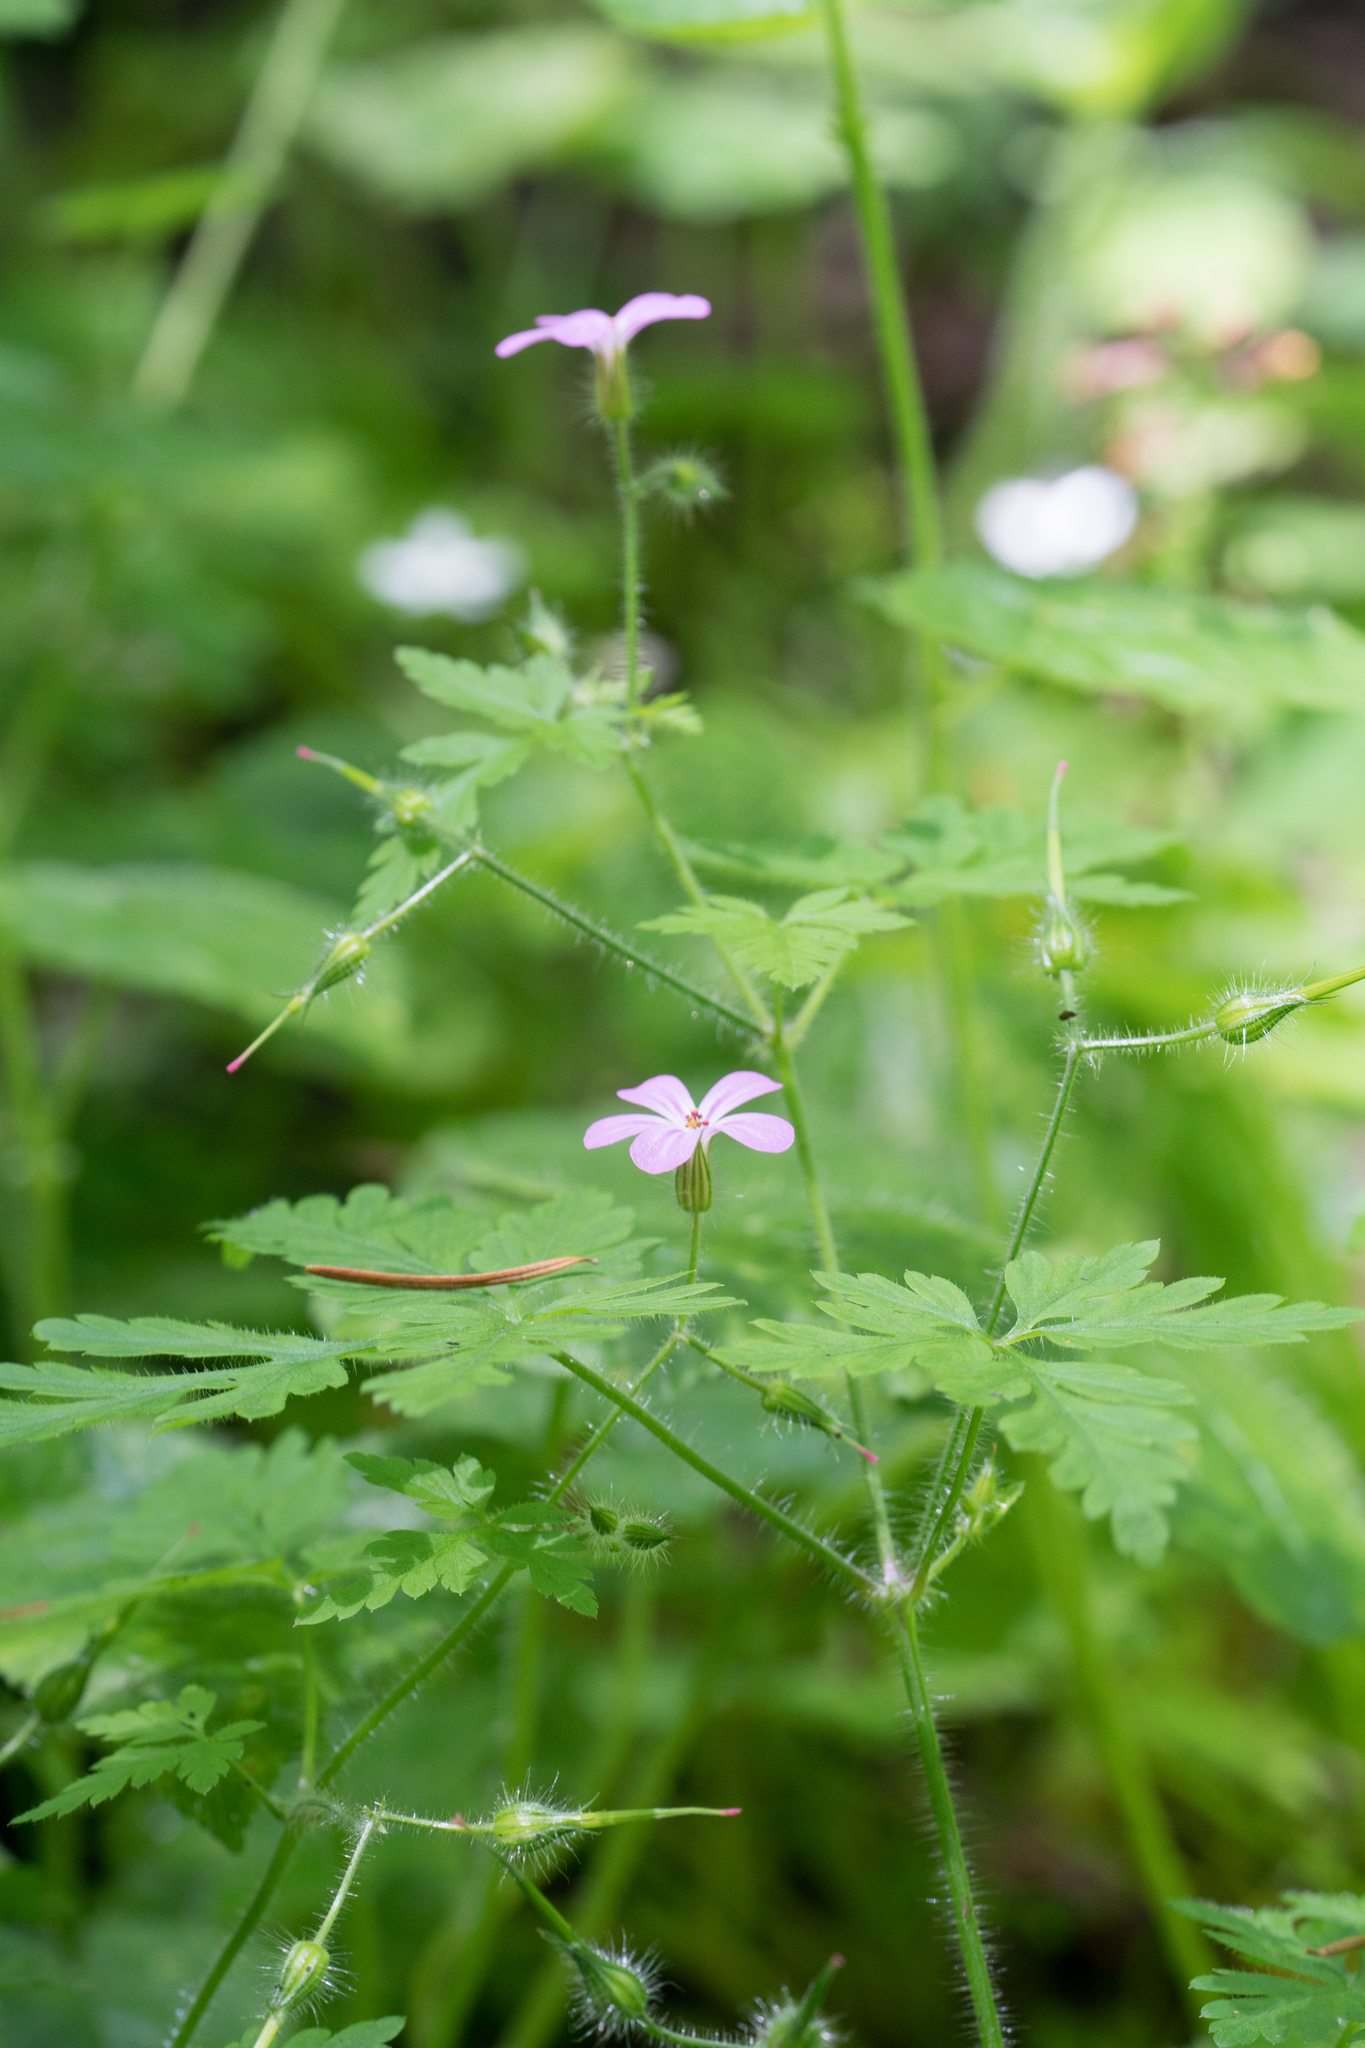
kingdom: Plantae
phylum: Tracheophyta
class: Magnoliopsida
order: Geraniales
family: Geraniaceae
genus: Geranium
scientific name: Geranium robertianum
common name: Herb-robert
